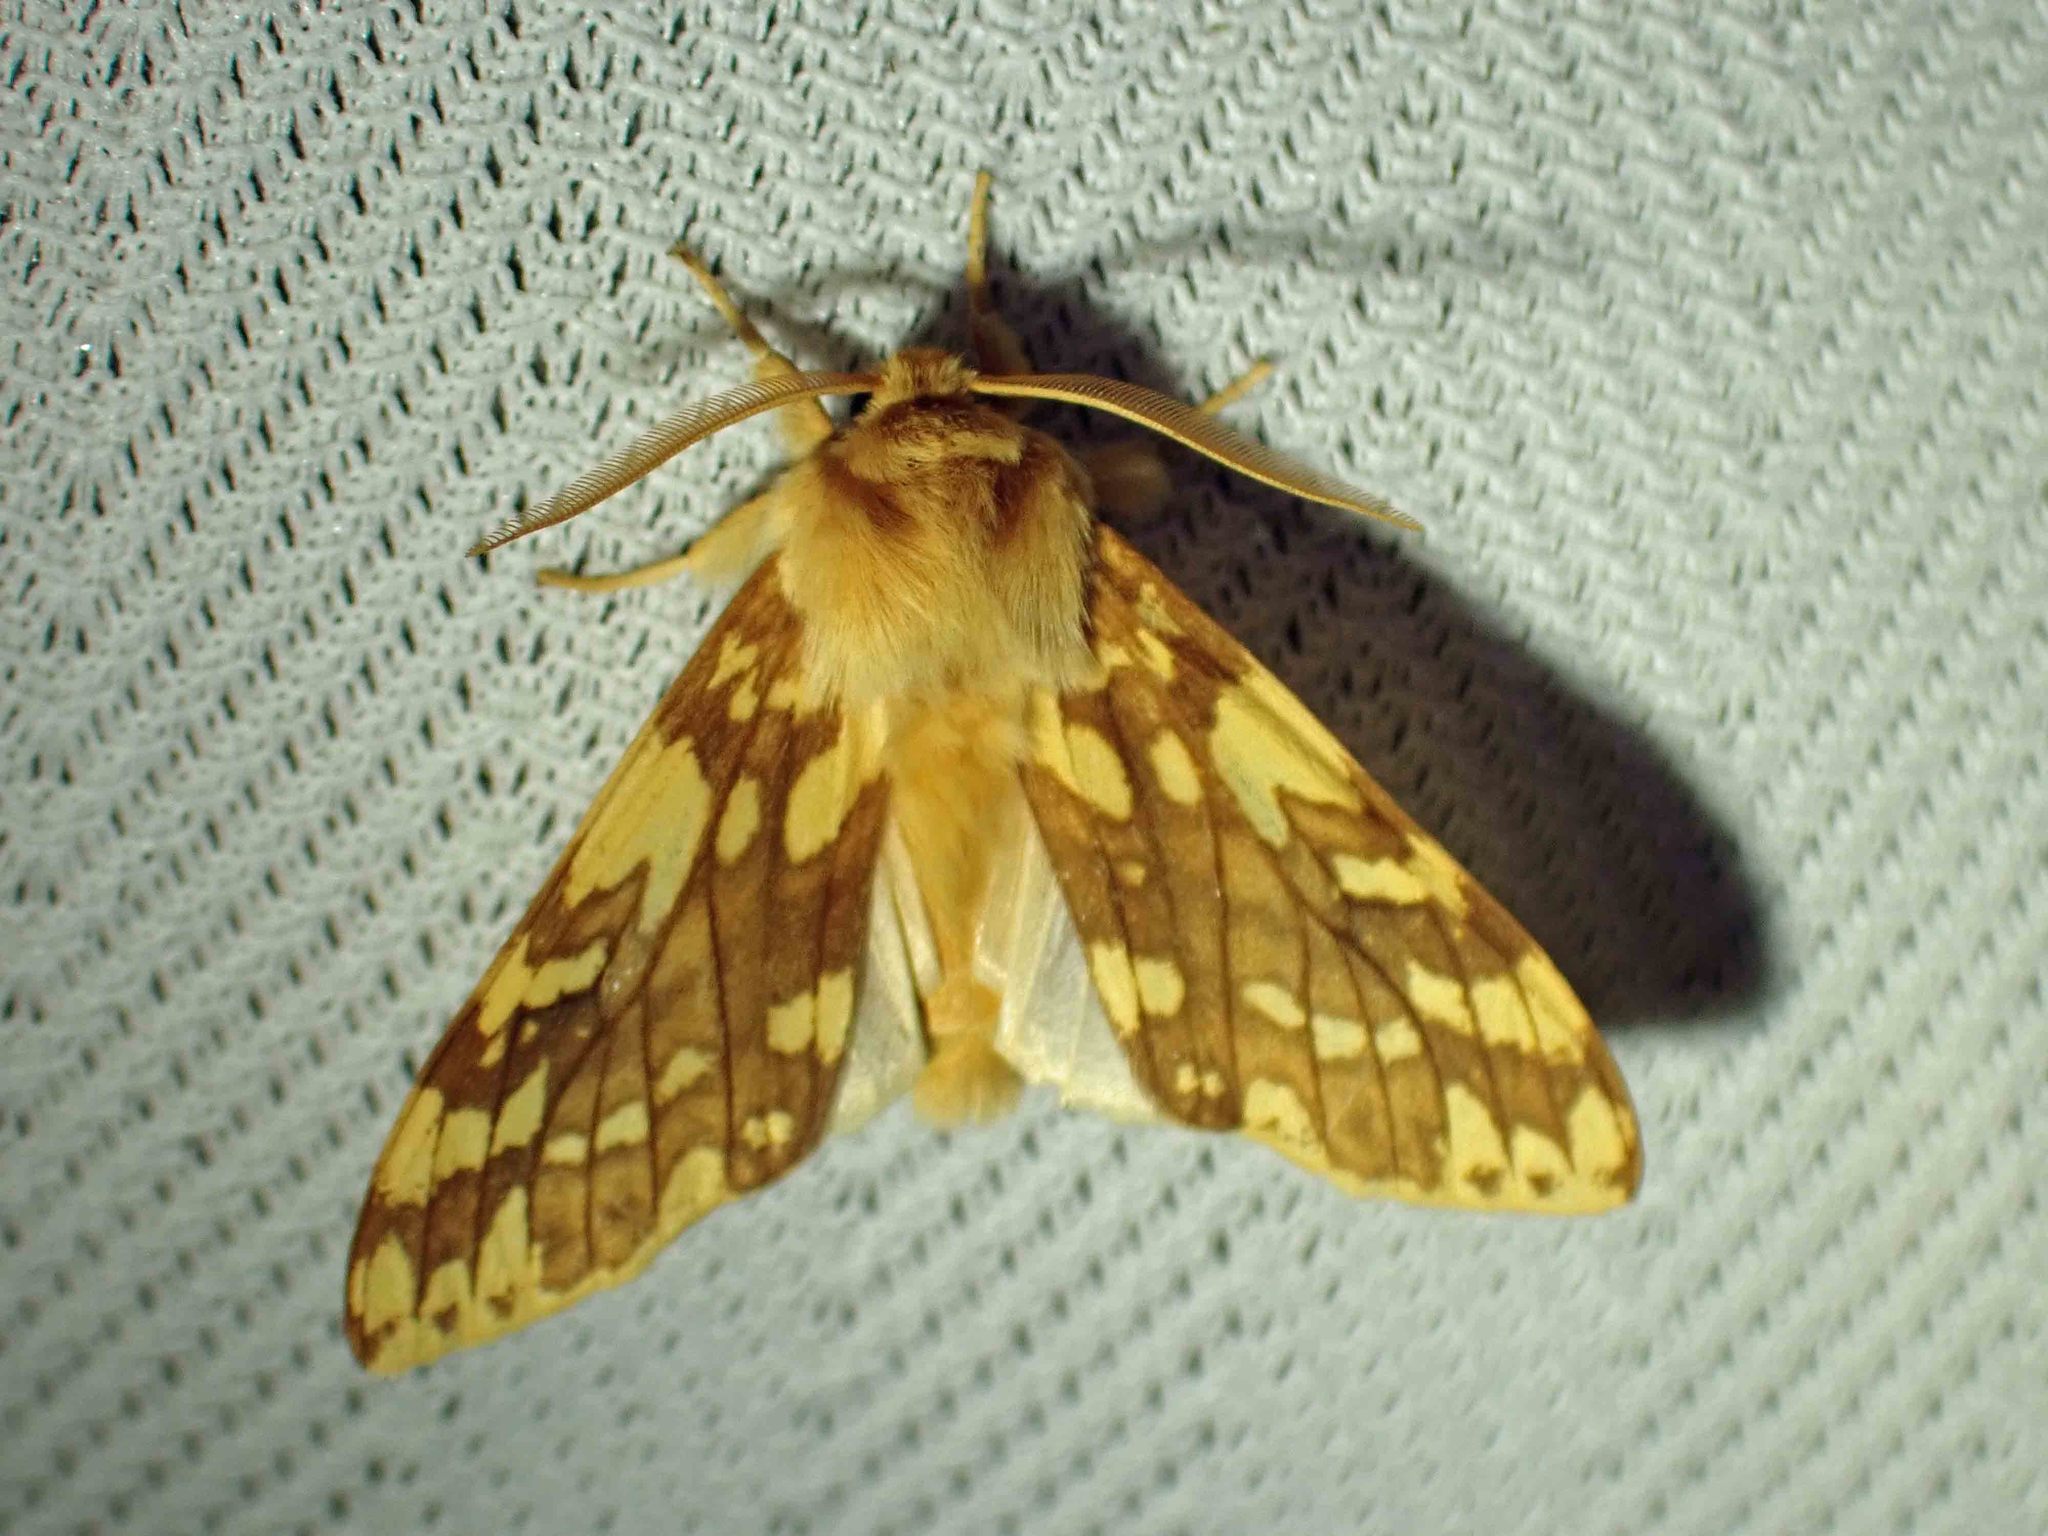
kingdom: Animalia
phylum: Arthropoda
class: Insecta
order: Lepidoptera
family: Erebidae
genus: Lophocampa
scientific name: Lophocampa maculata
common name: Spotted tussock moth
